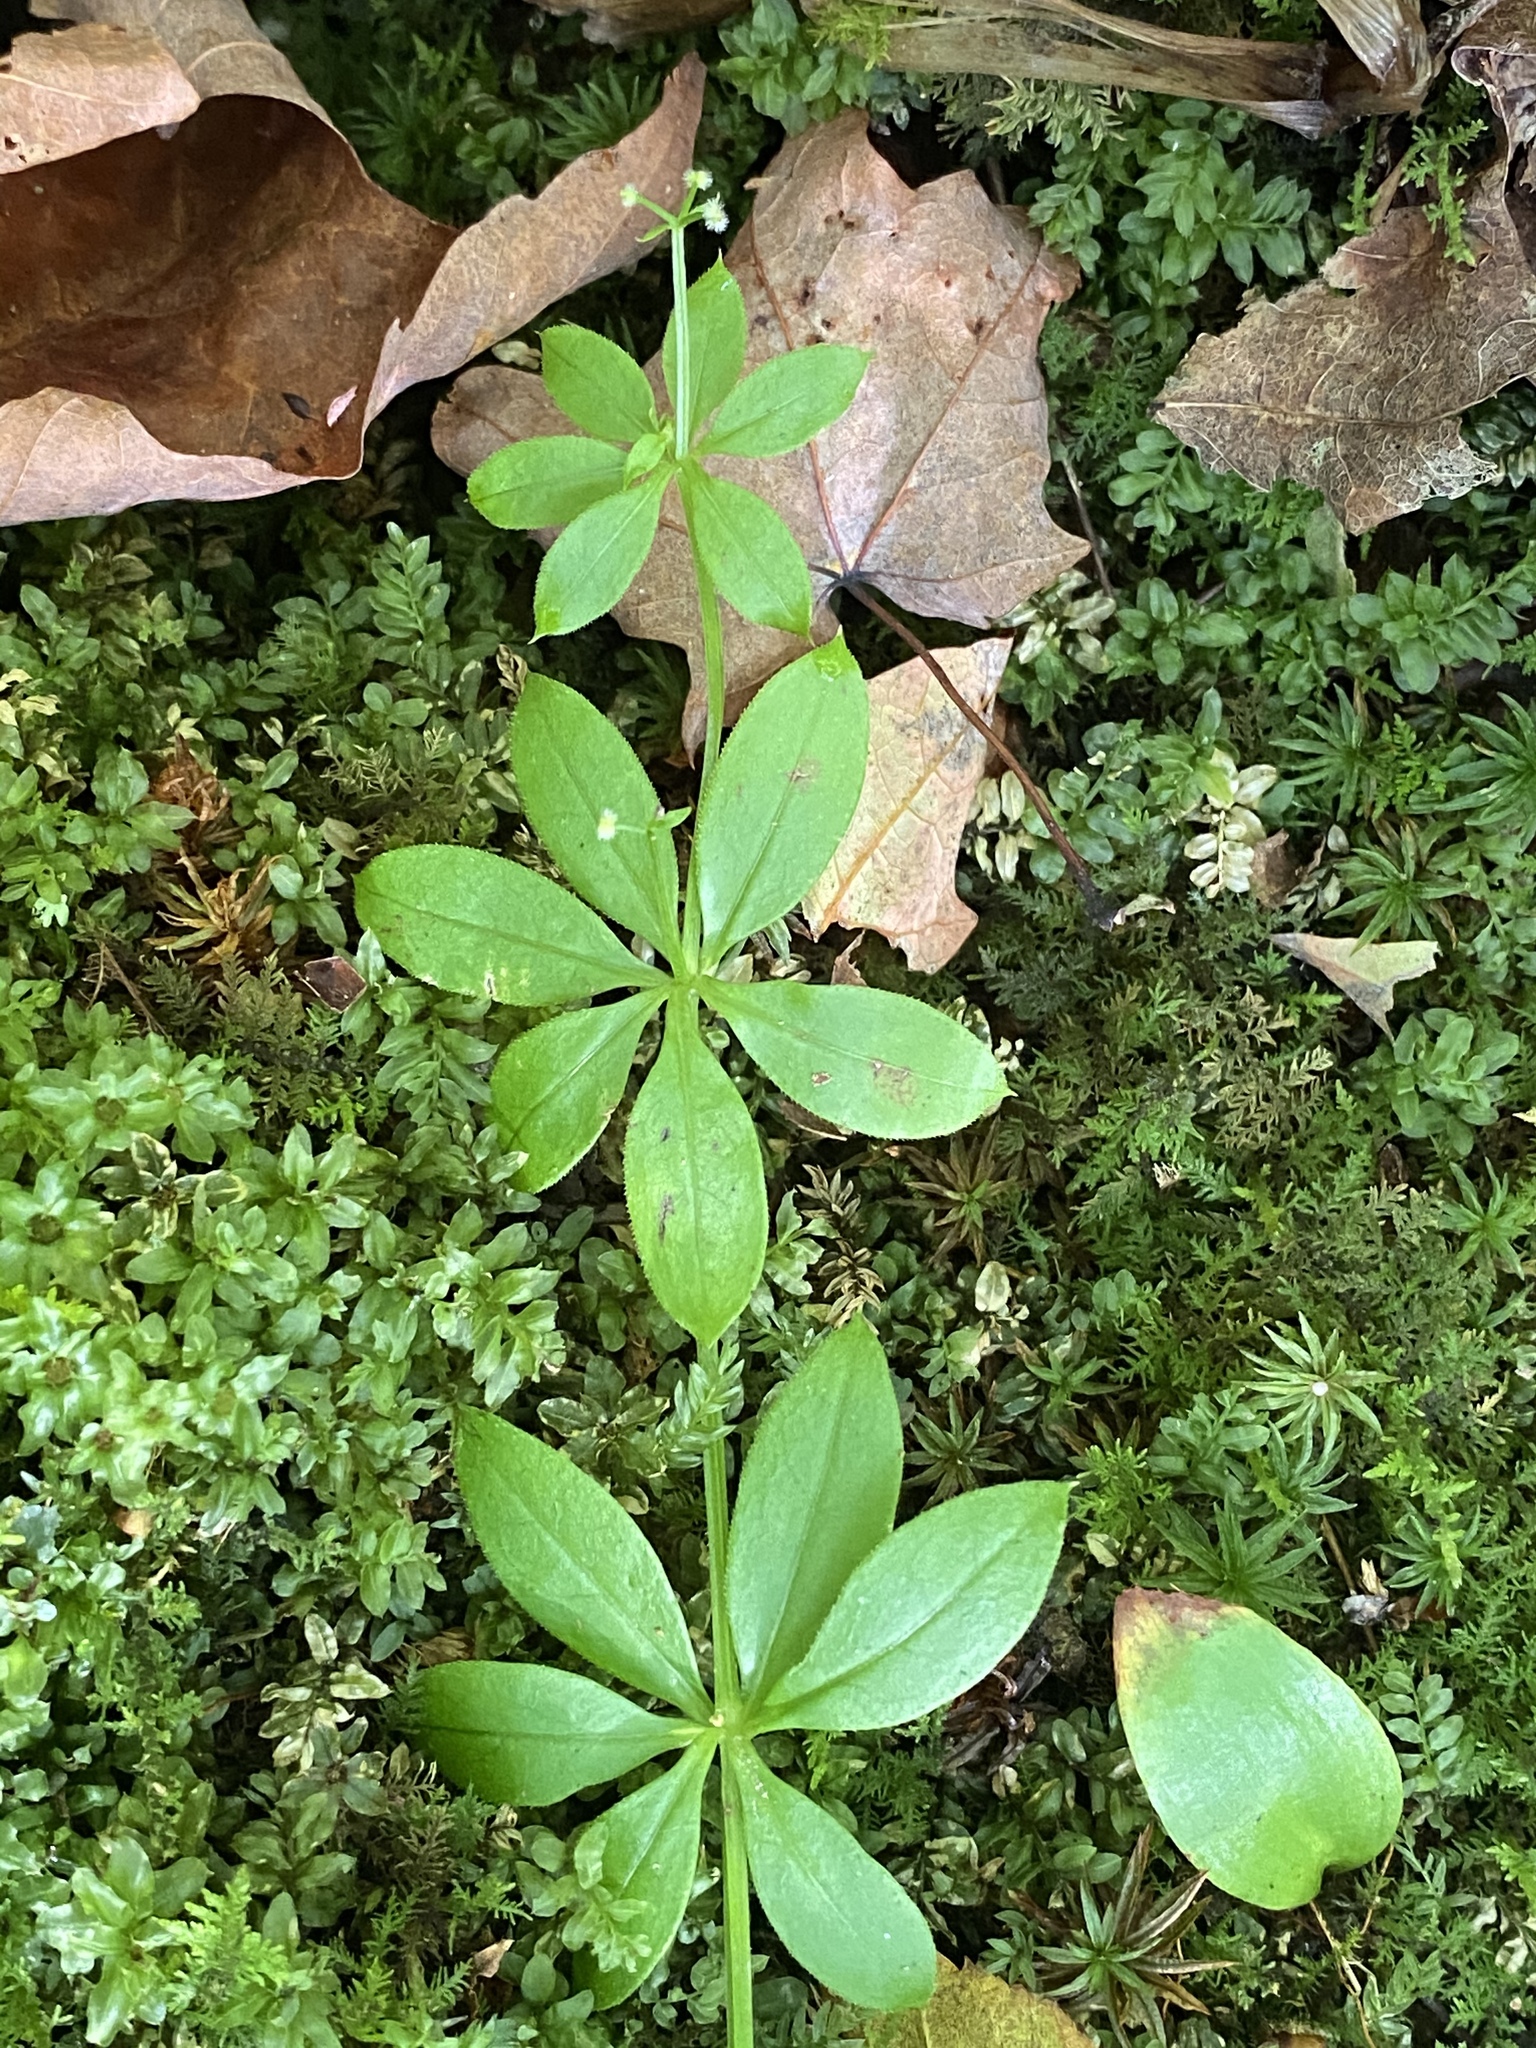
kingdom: Plantae
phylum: Tracheophyta
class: Magnoliopsida
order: Gentianales
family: Rubiaceae
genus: Galium
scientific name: Galium triflorum
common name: Fragrant bedstraw
